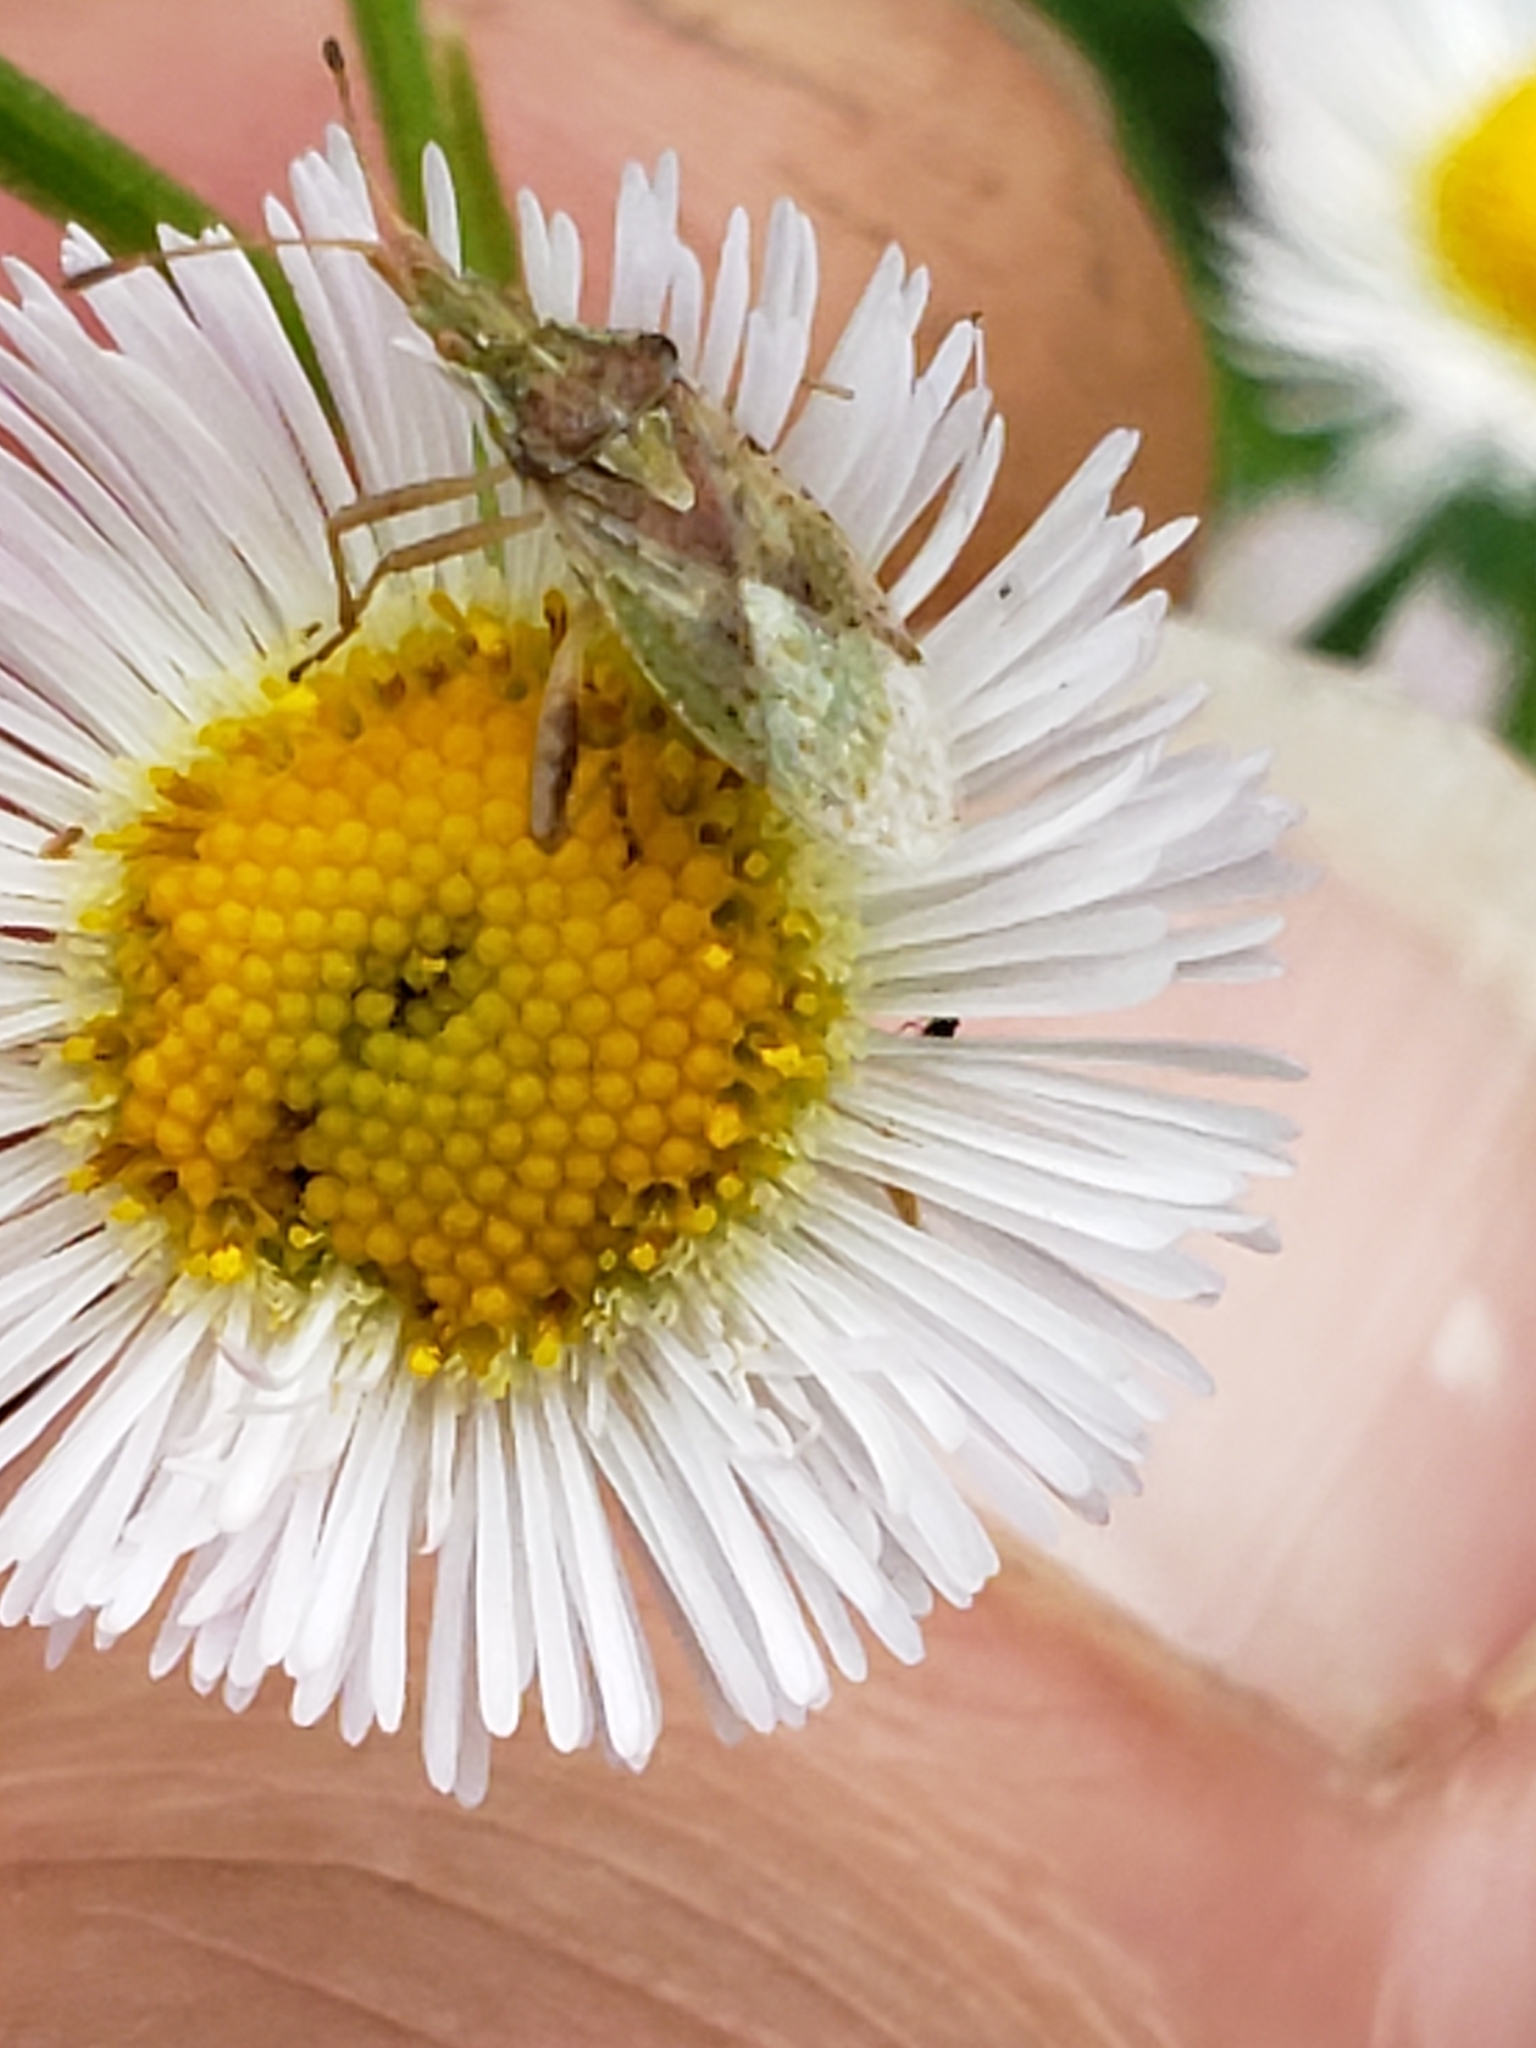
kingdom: Animalia
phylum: Arthropoda
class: Insecta
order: Hemiptera
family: Rhopalidae
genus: Harmostes
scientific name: Harmostes reflexulus
